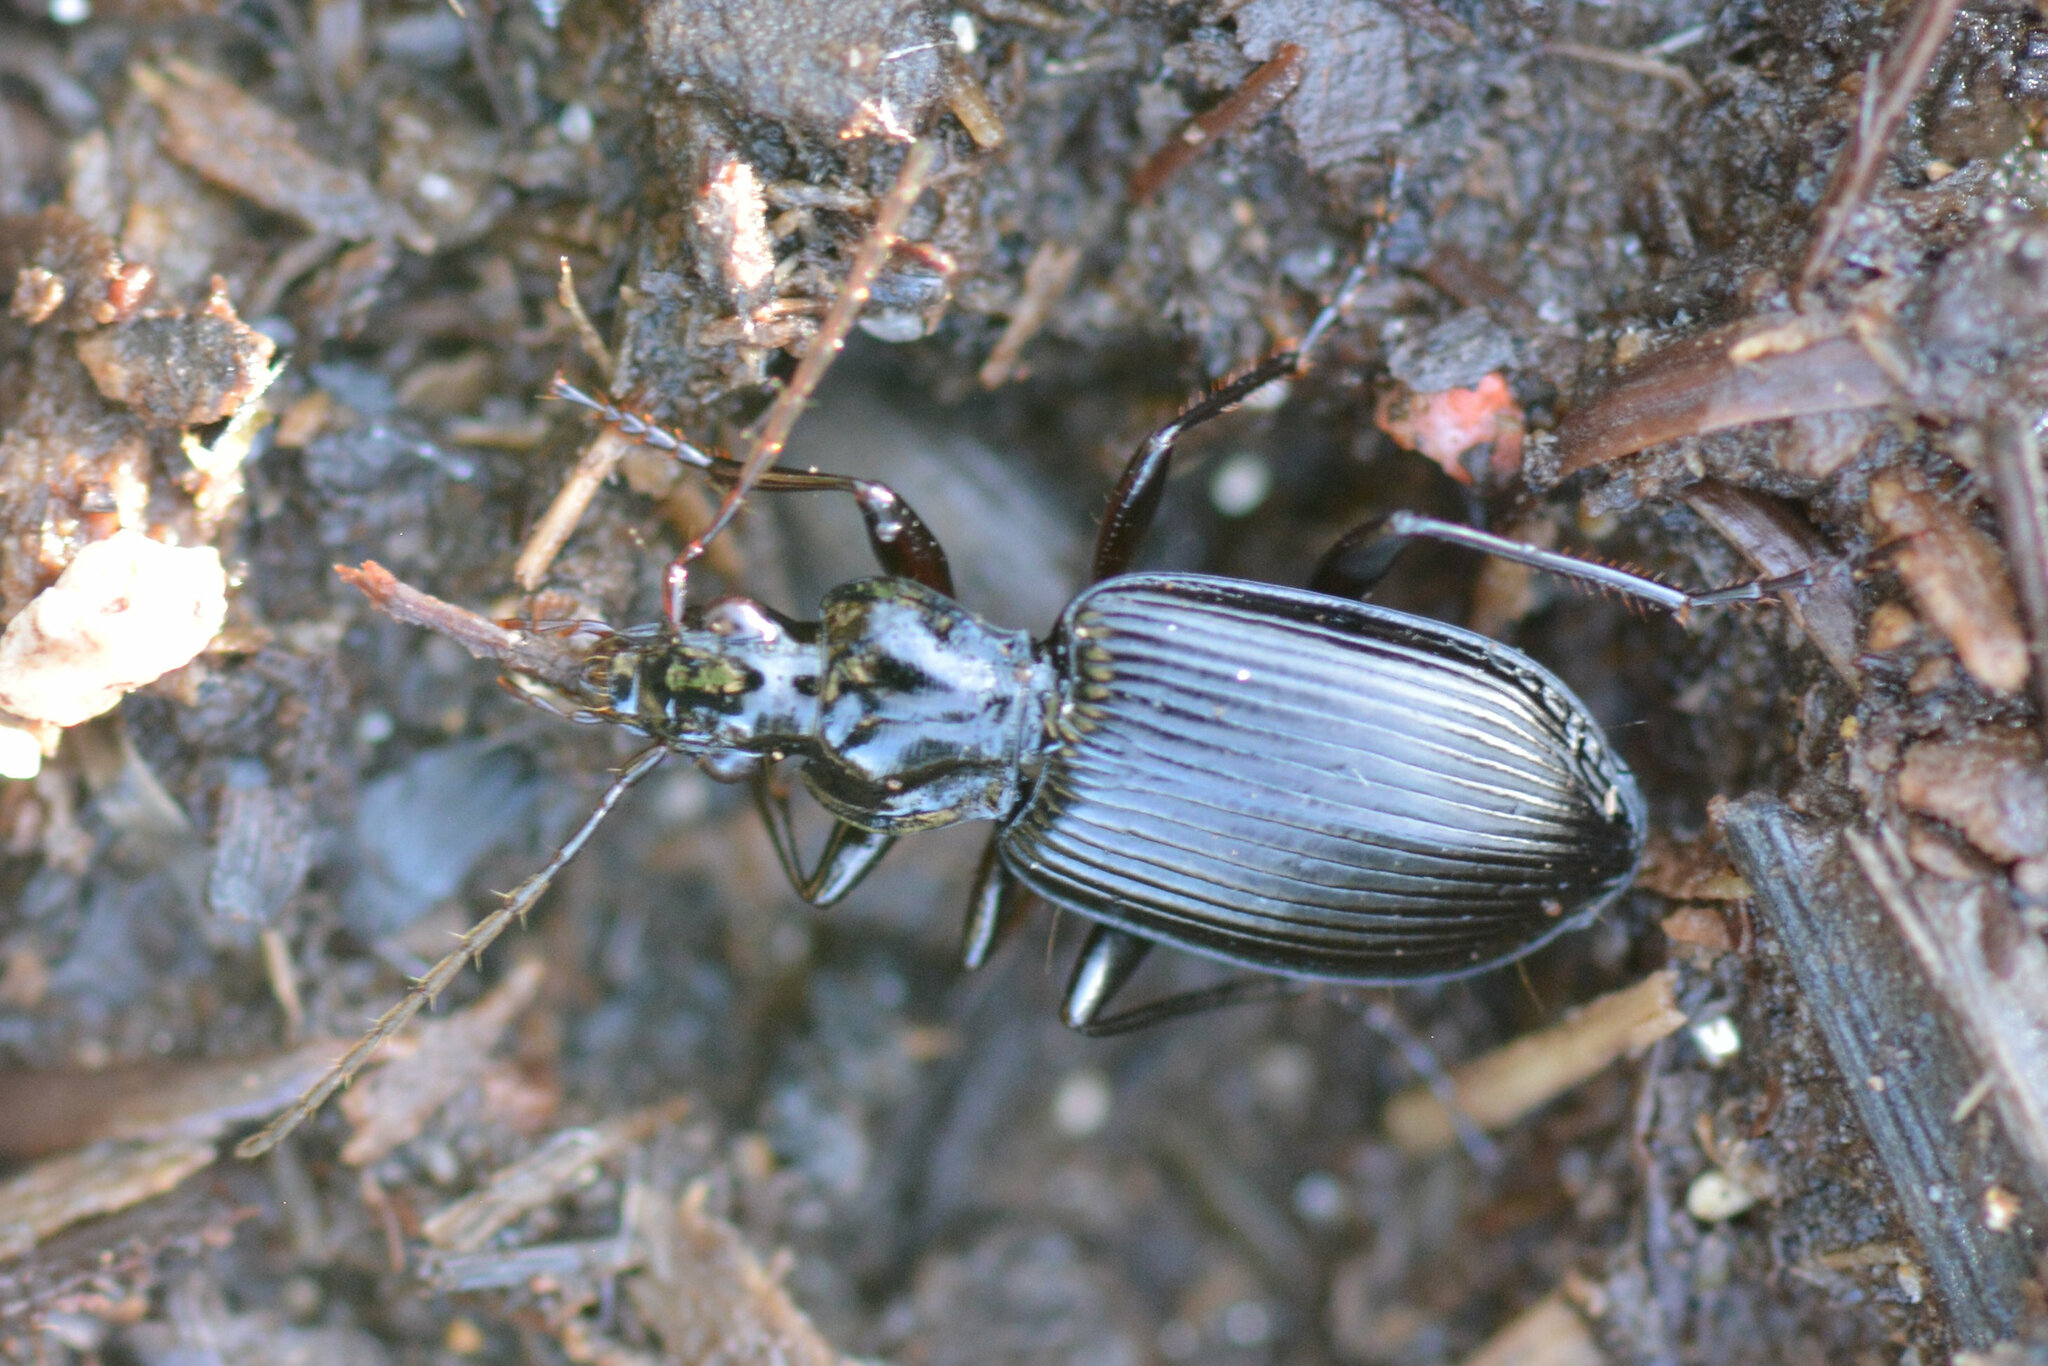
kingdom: Animalia
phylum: Arthropoda
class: Insecta
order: Coleoptera
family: Carabidae
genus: Platynus
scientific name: Platynus assimilis
